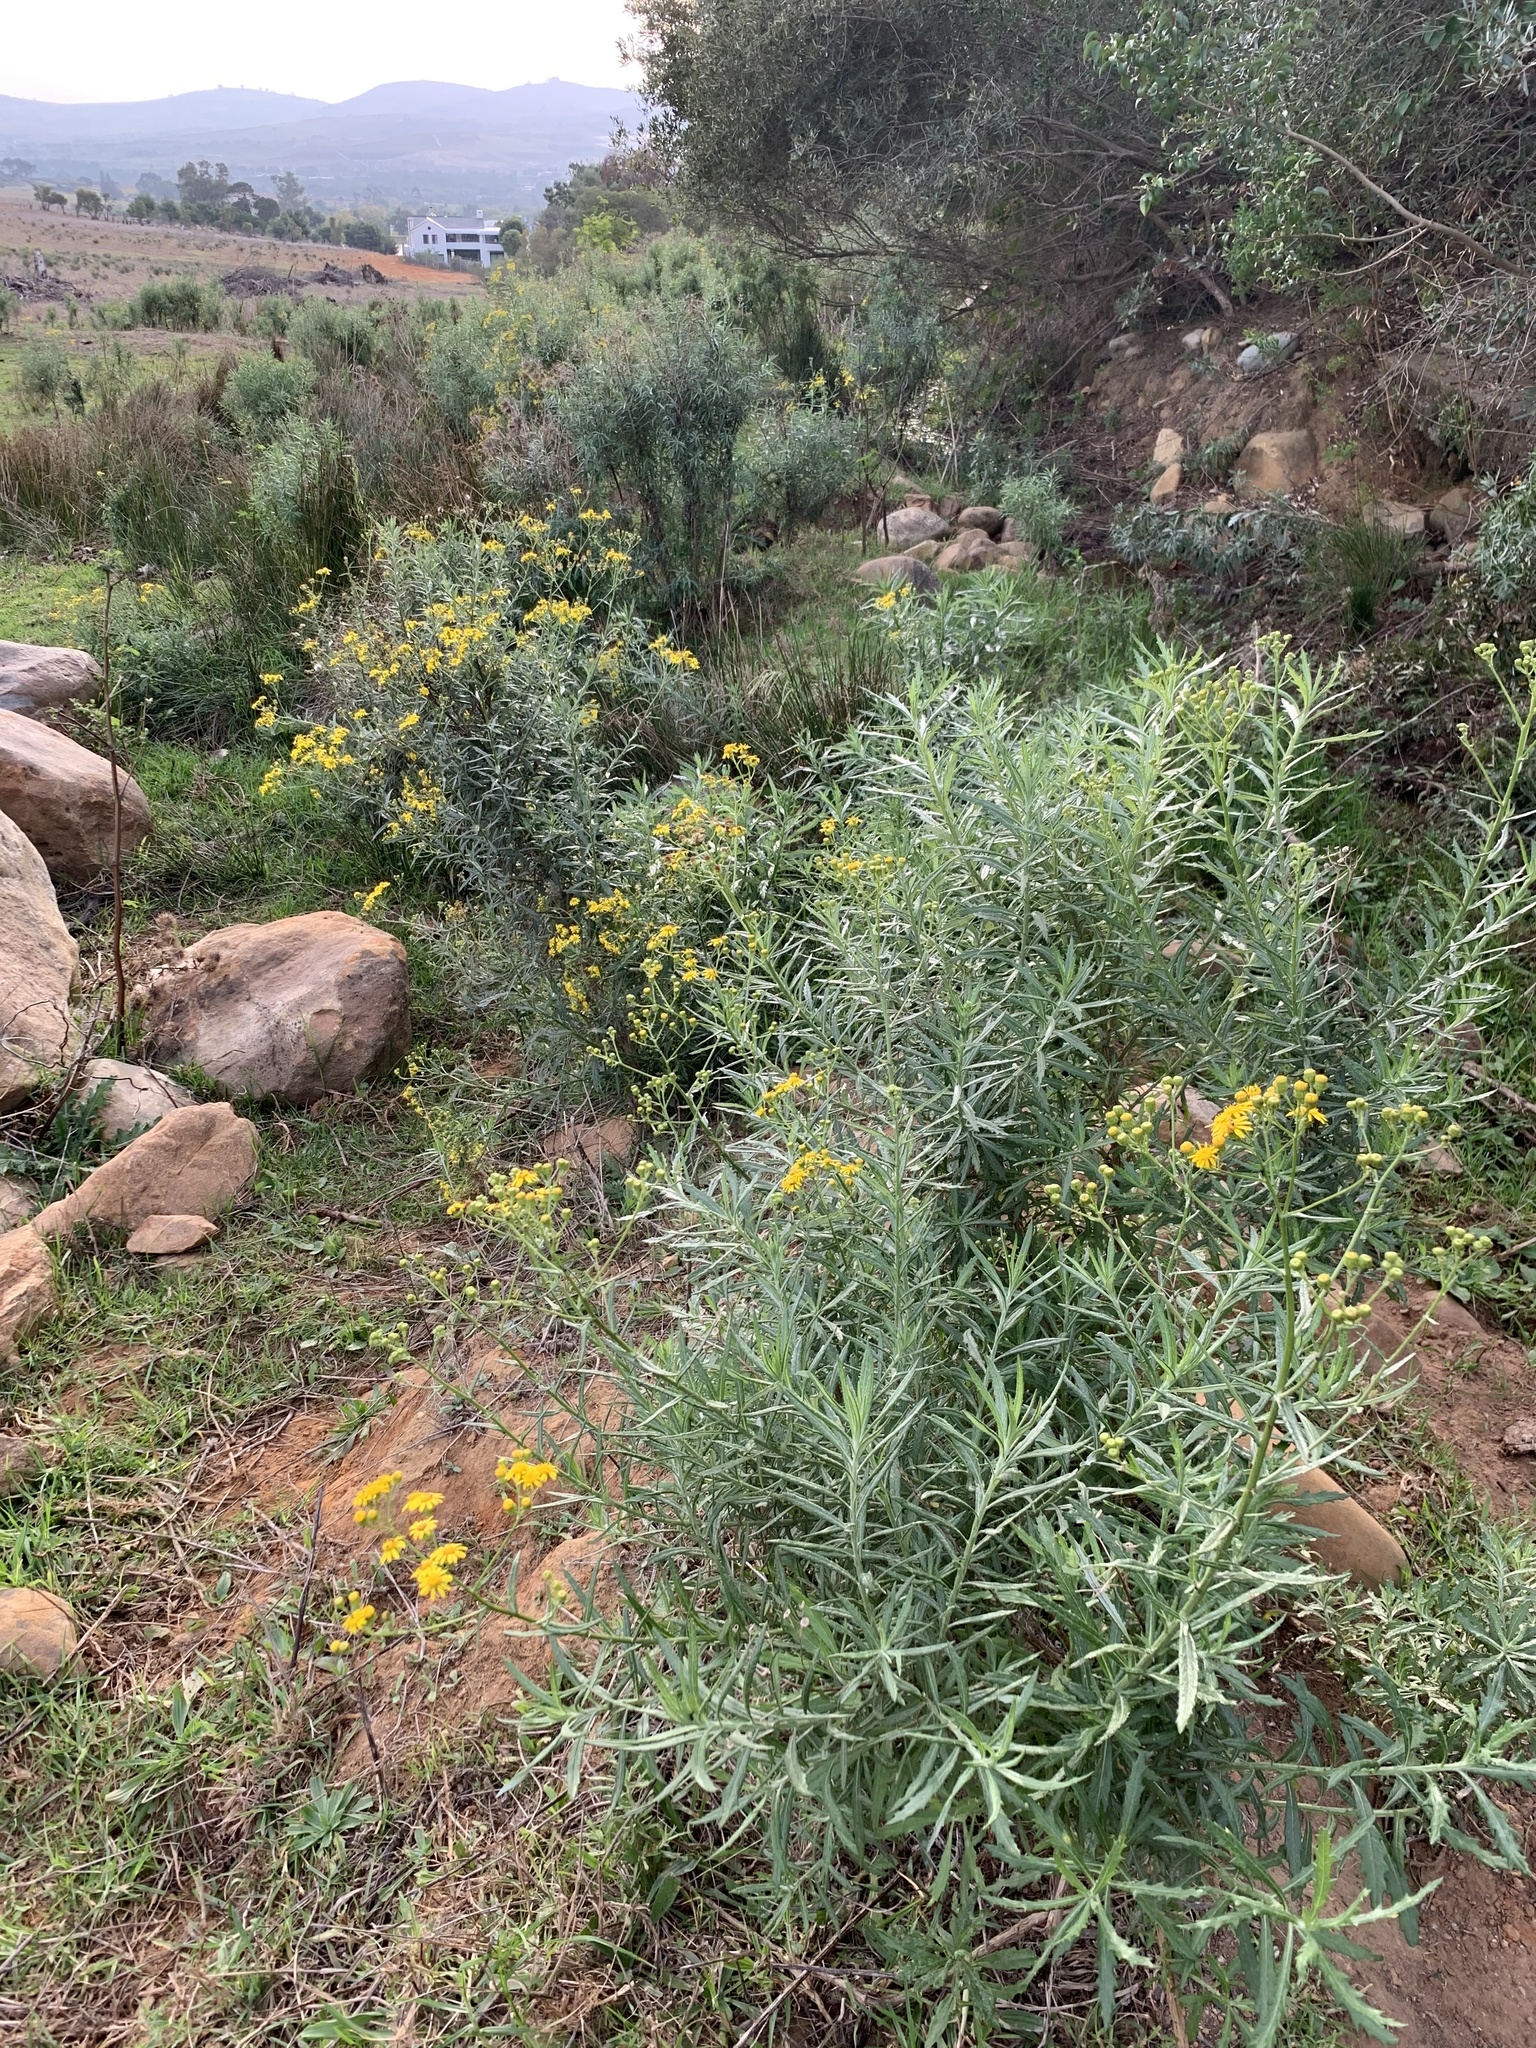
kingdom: Plantae
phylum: Tracheophyta
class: Magnoliopsida
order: Asterales
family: Asteraceae
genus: Senecio
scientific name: Senecio pterophorus
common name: Shoddy ragwort
